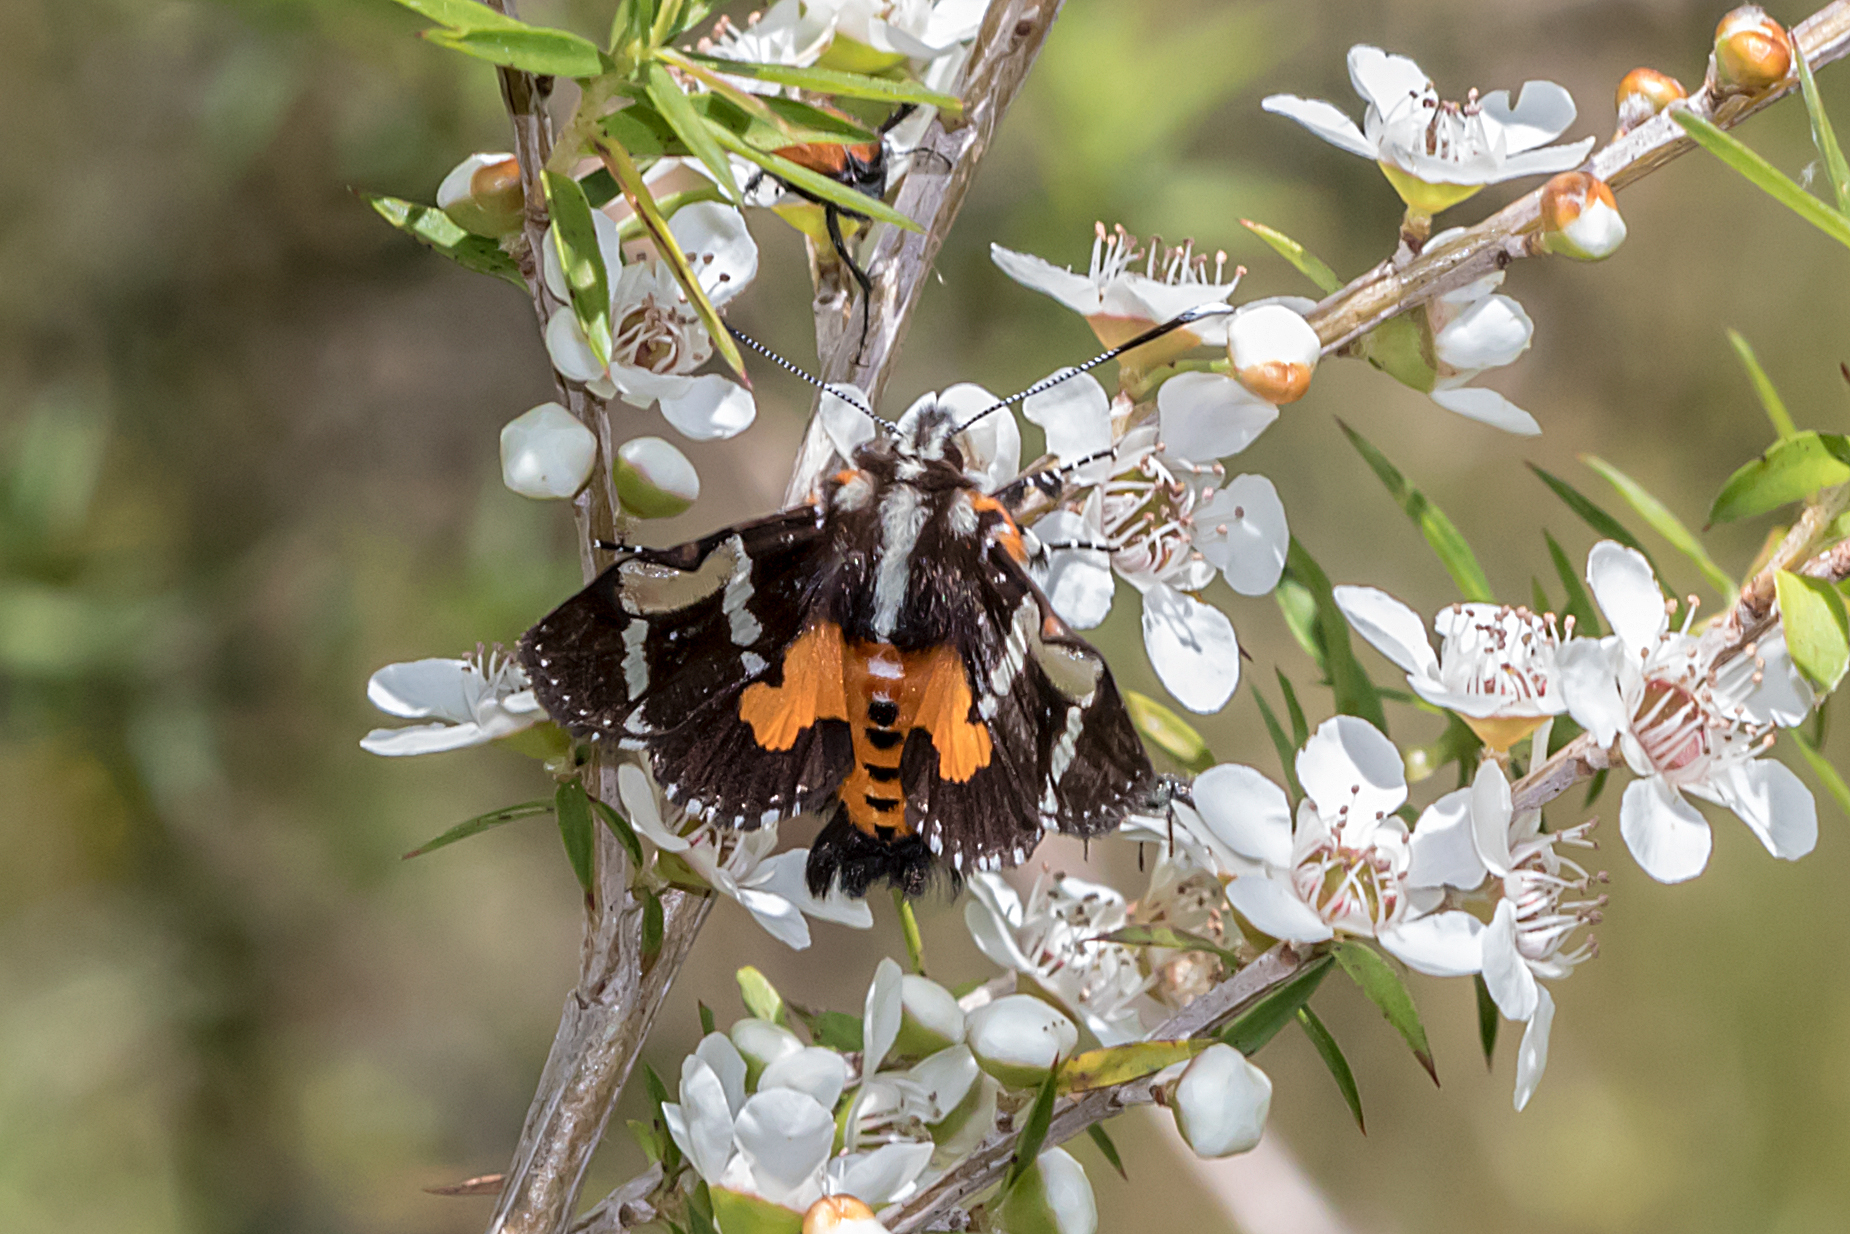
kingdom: Animalia
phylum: Arthropoda
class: Insecta
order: Lepidoptera
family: Noctuidae
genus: Hecatesia
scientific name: Hecatesia fenestrata
